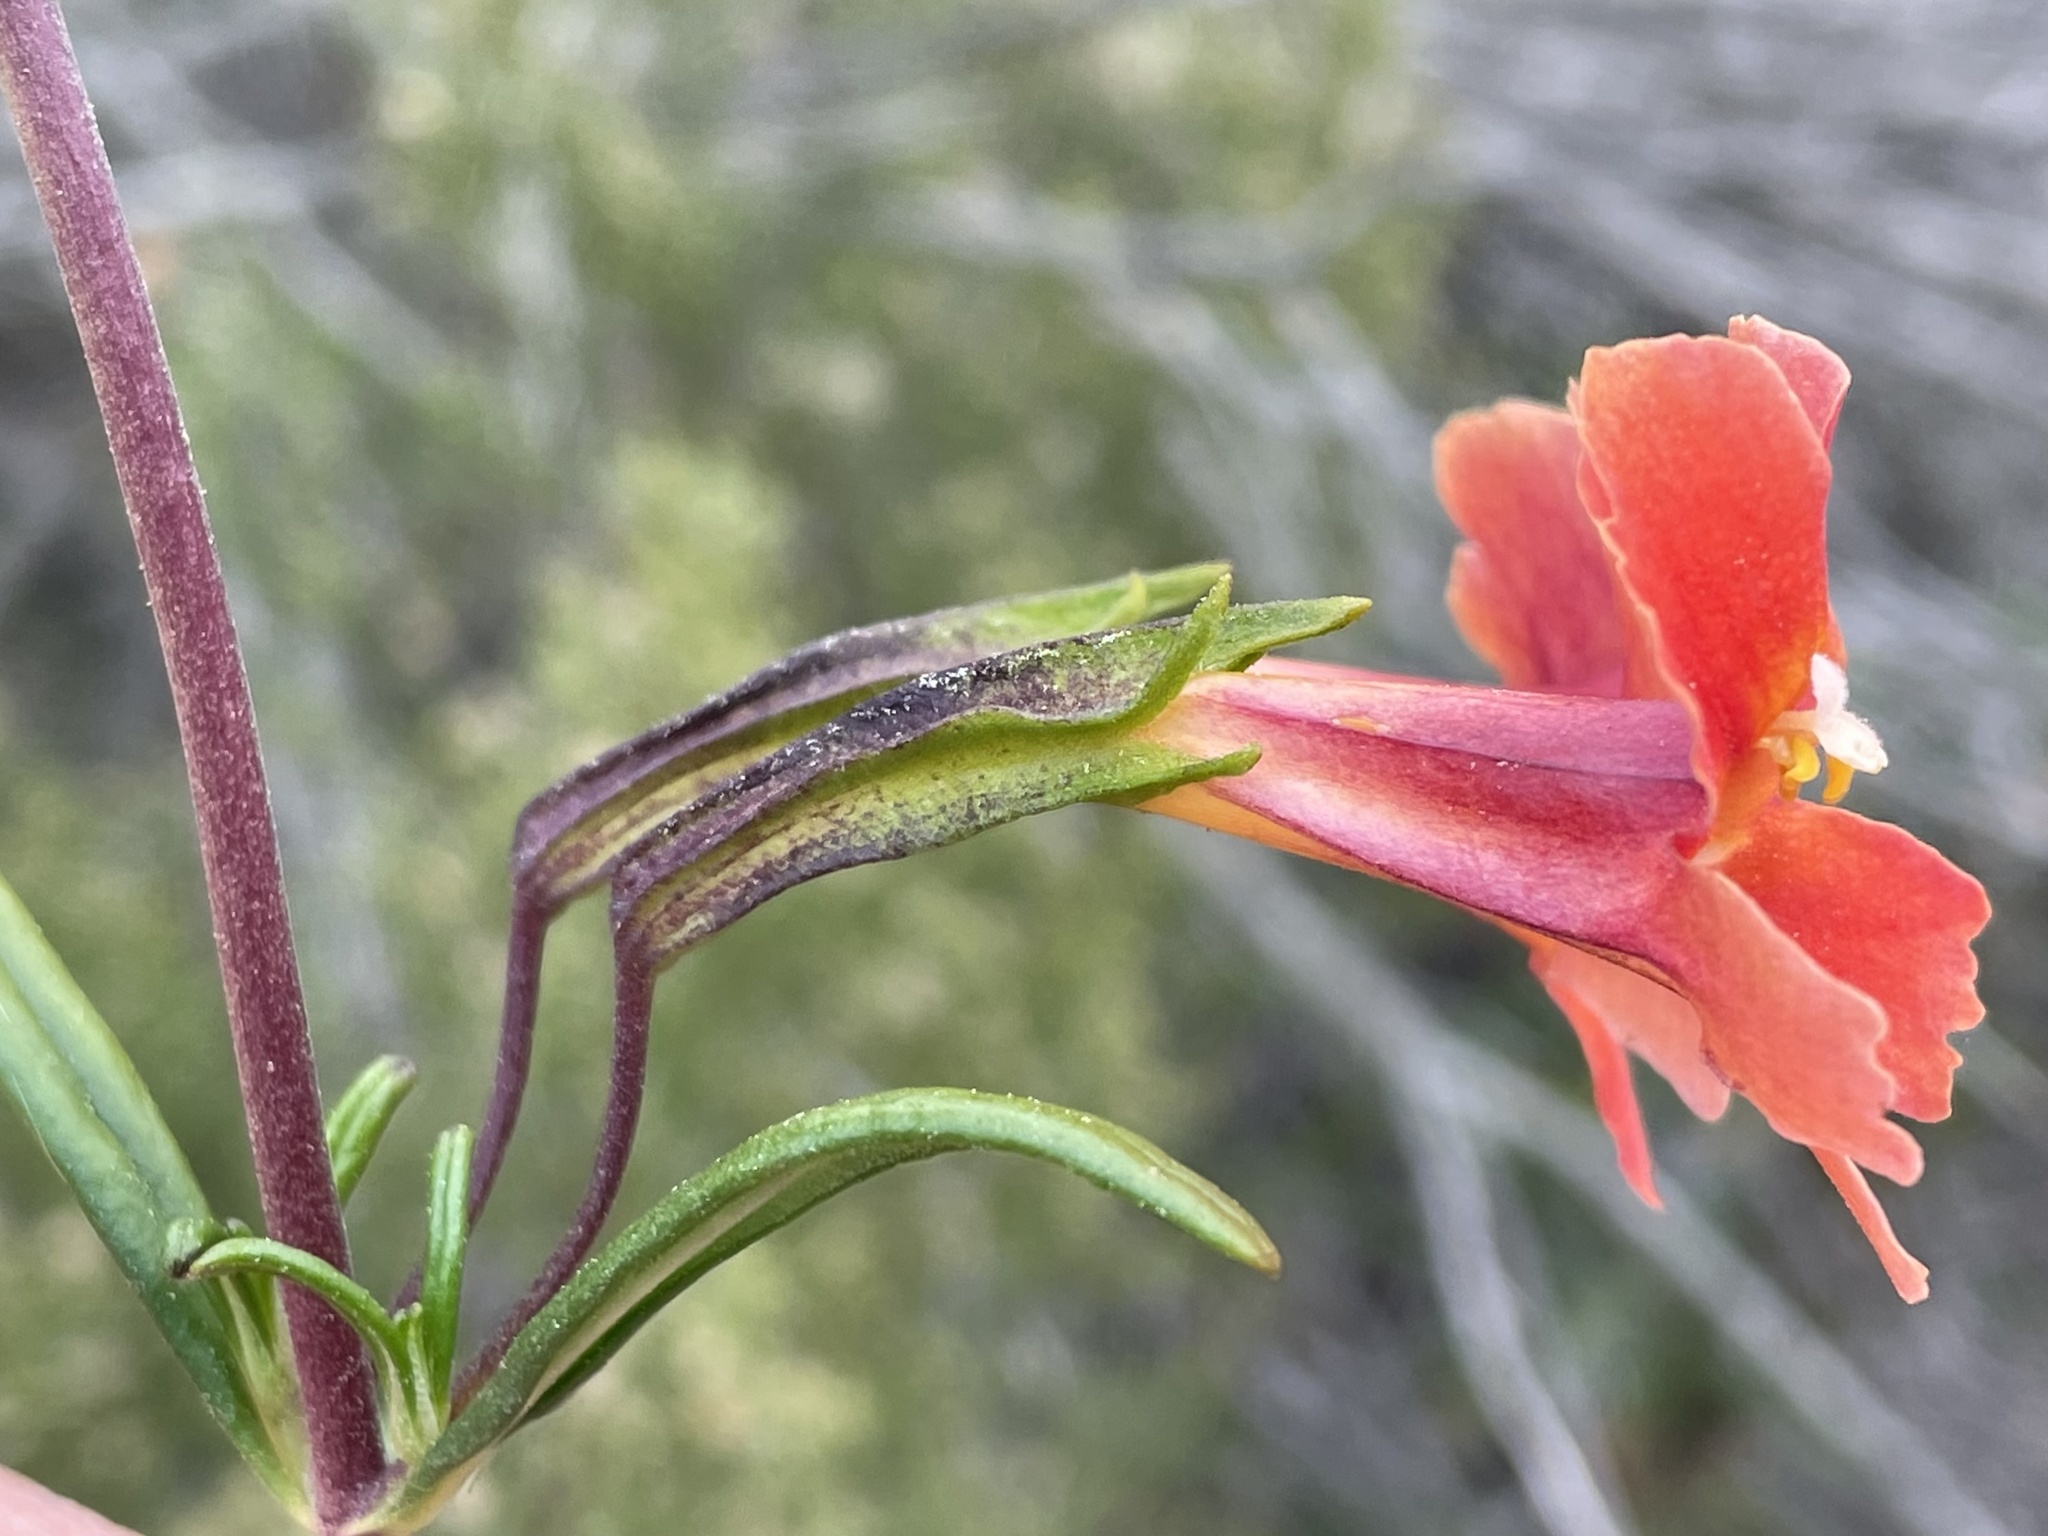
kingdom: Plantae
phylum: Tracheophyta
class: Magnoliopsida
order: Lamiales
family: Phrymaceae
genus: Diplacus
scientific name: Diplacus puniceus
